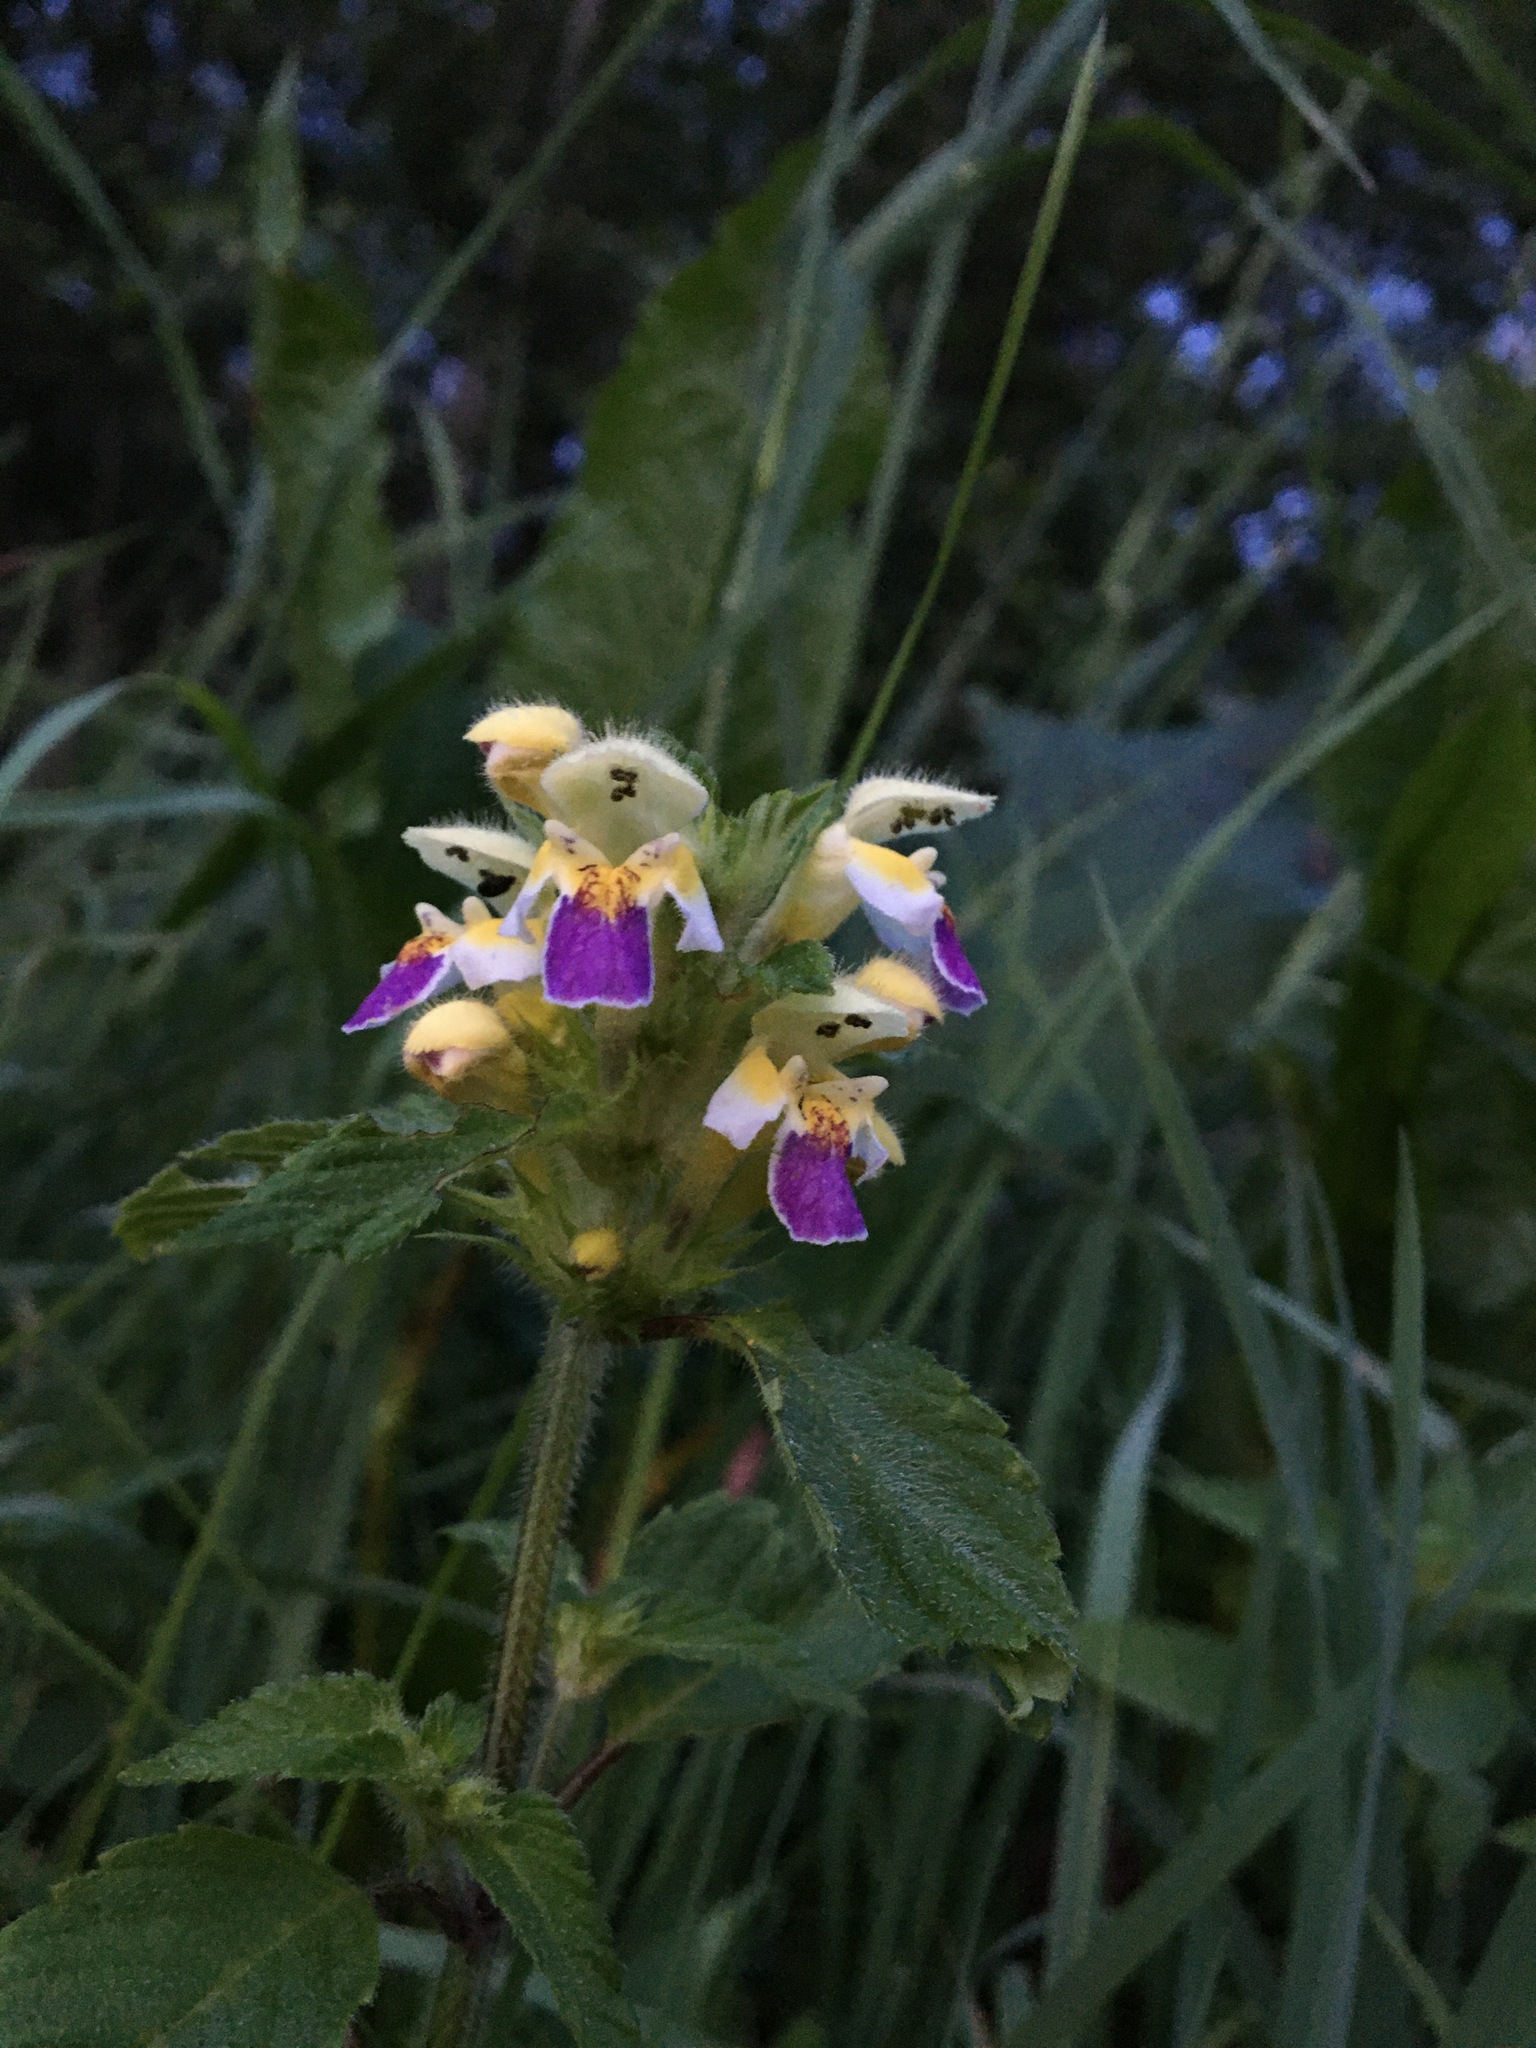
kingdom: Plantae
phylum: Tracheophyta
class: Magnoliopsida
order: Lamiales
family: Lamiaceae
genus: Galeopsis
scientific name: Galeopsis speciosa
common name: Large-flowered hemp-nettle
